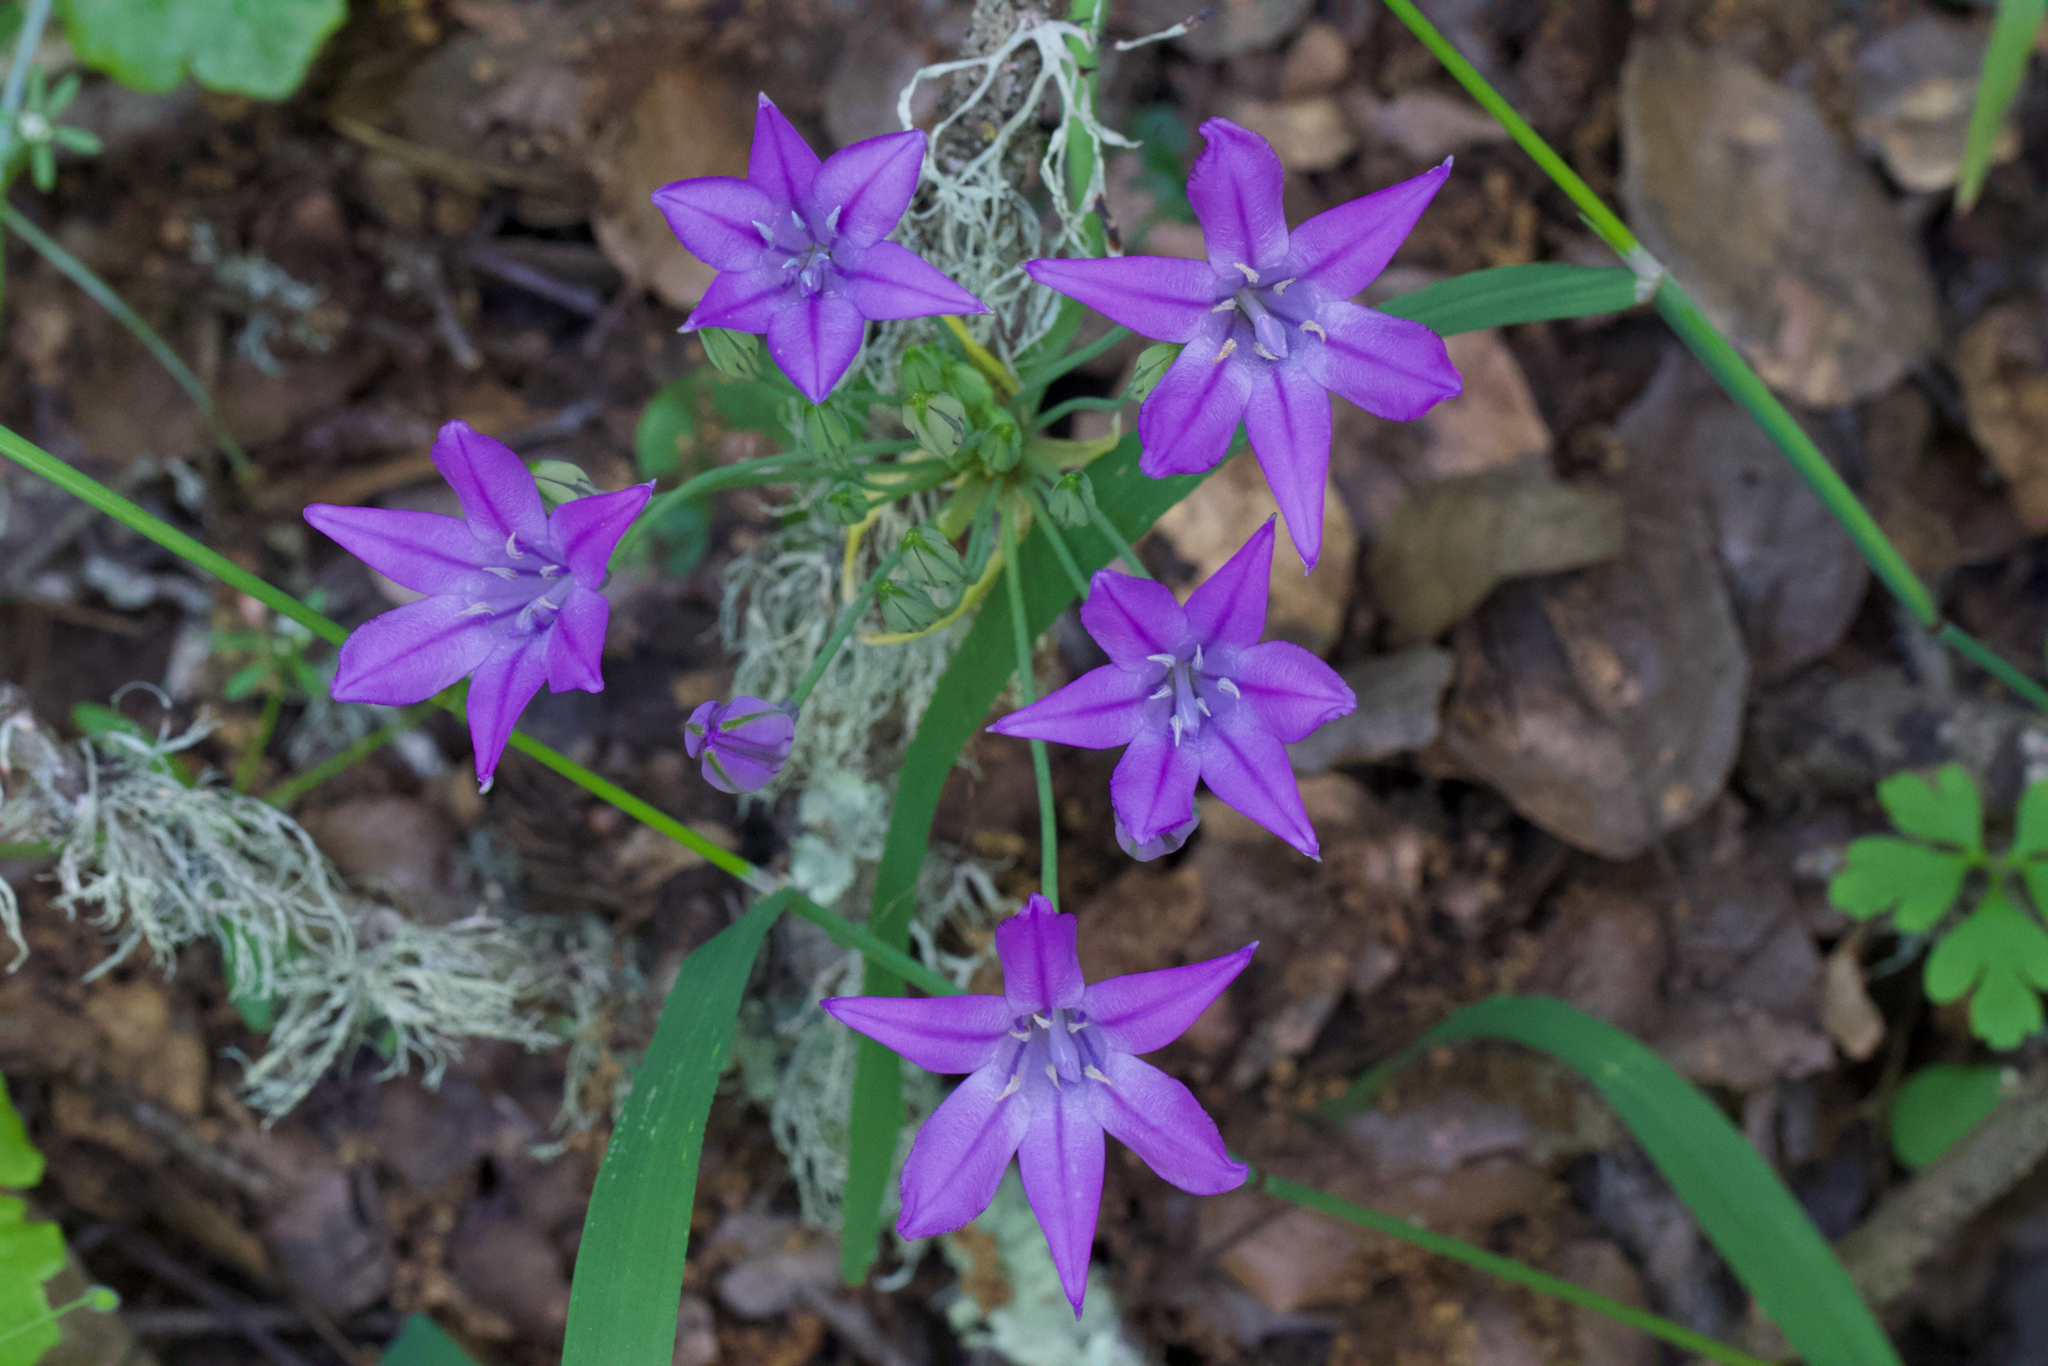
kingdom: Plantae
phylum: Tracheophyta
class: Liliopsida
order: Asparagales
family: Asparagaceae
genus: Triteleia
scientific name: Triteleia laxa
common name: Triplet-lily
